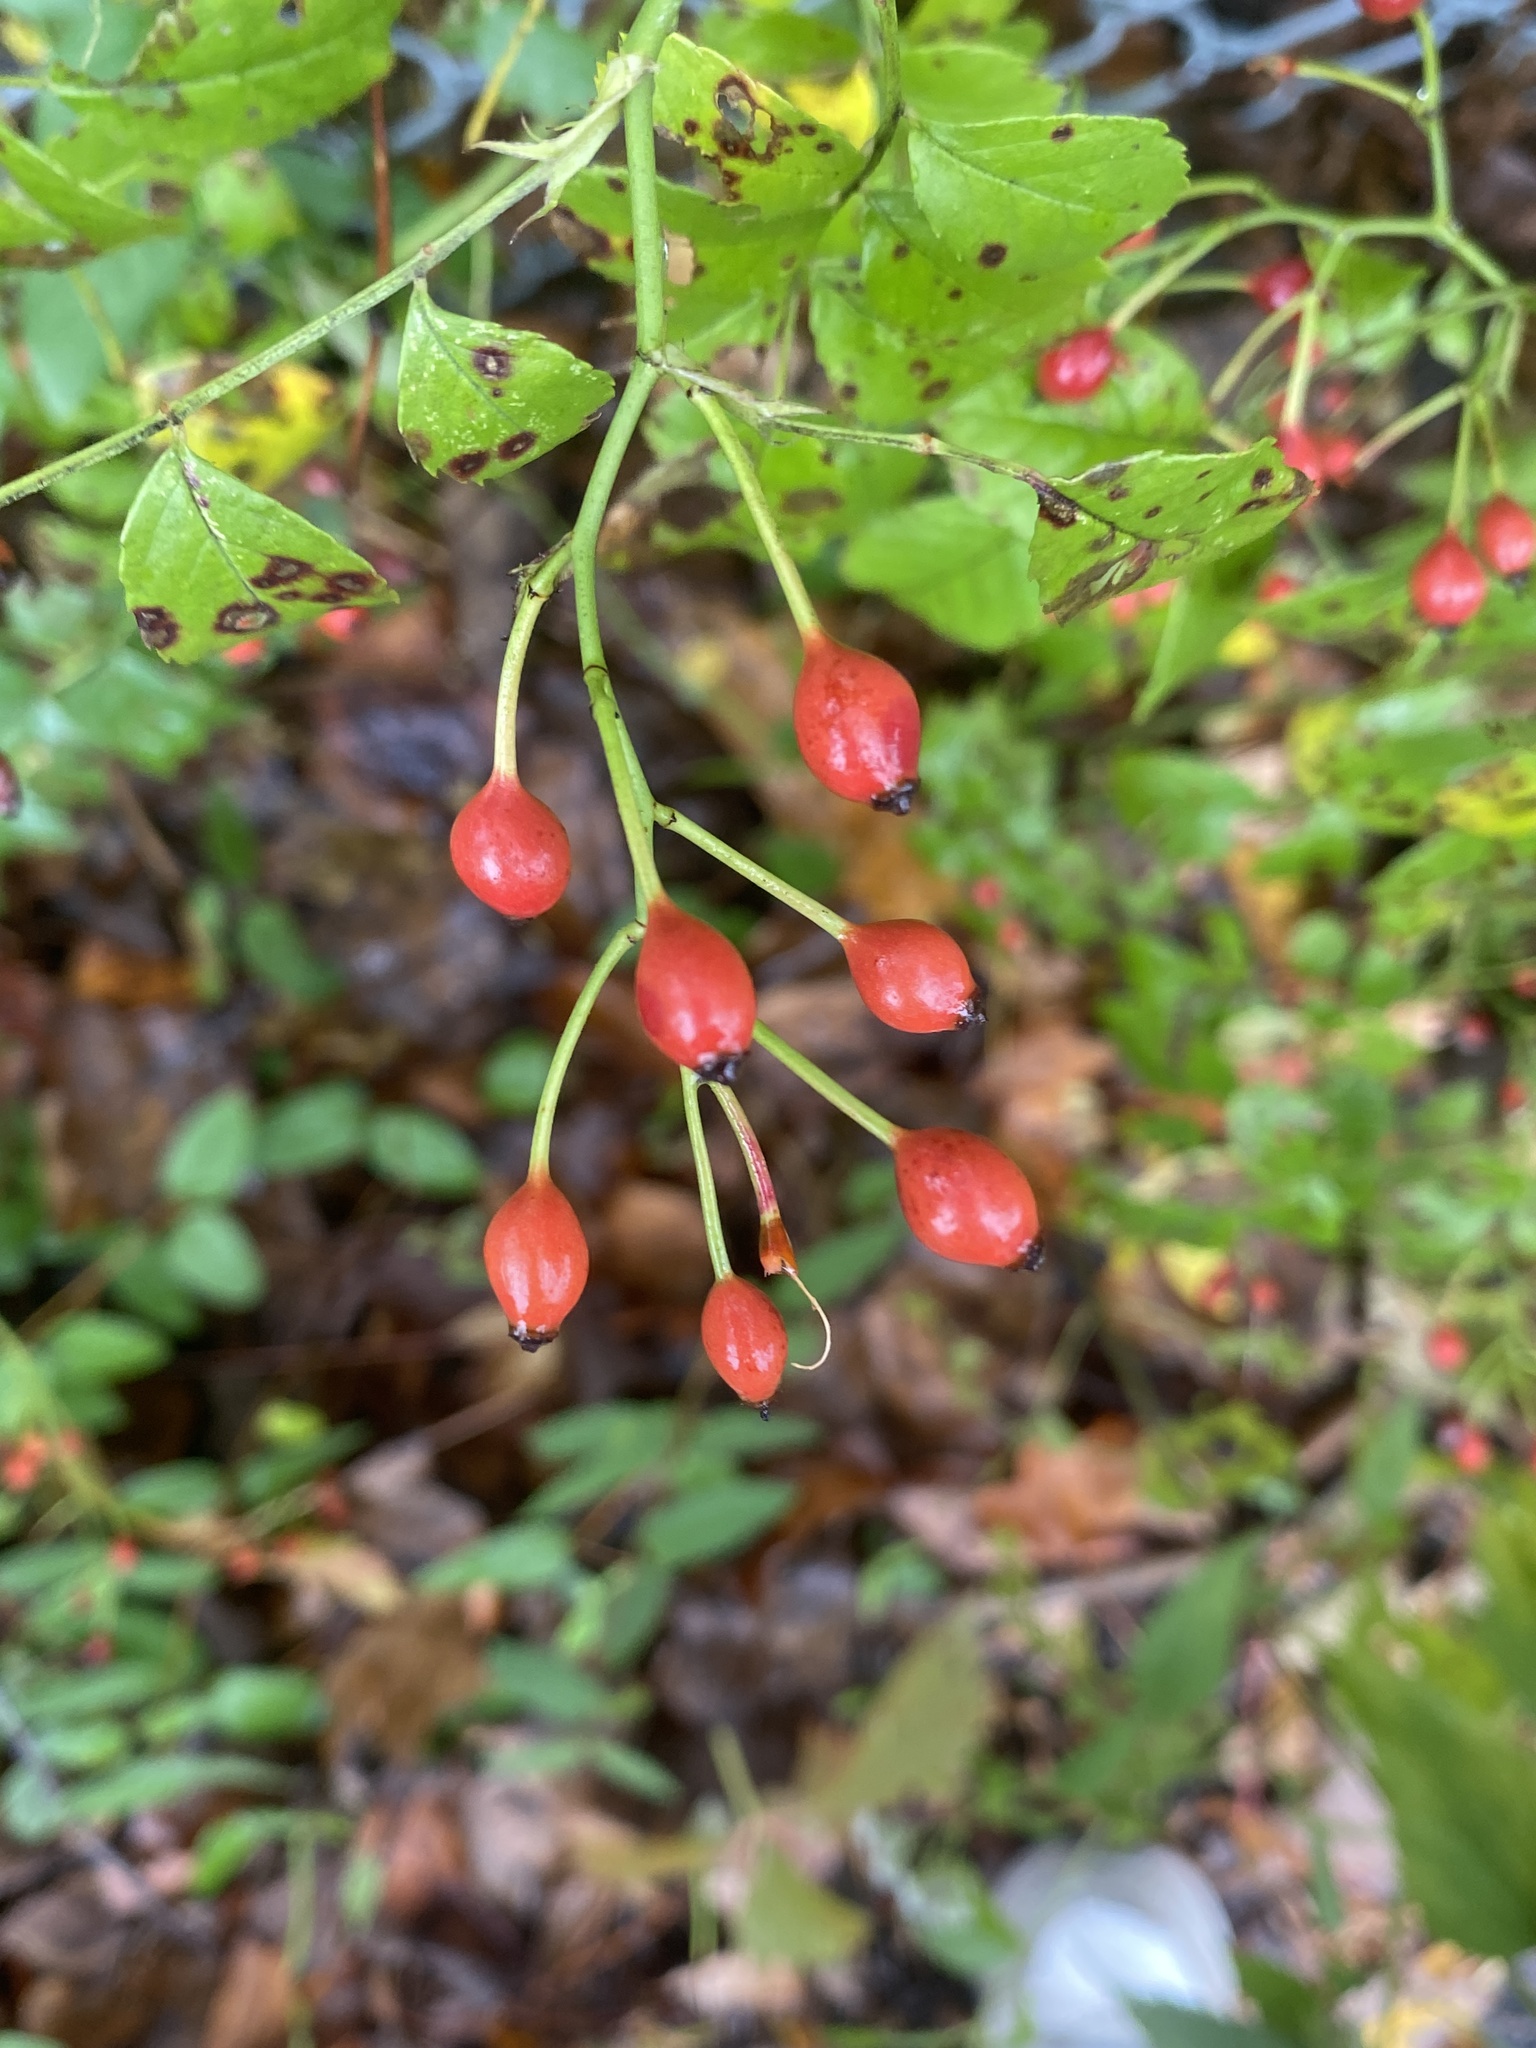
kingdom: Plantae
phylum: Tracheophyta
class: Magnoliopsida
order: Rosales
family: Rosaceae
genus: Rosa
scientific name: Rosa multiflora
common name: Multiflora rose
